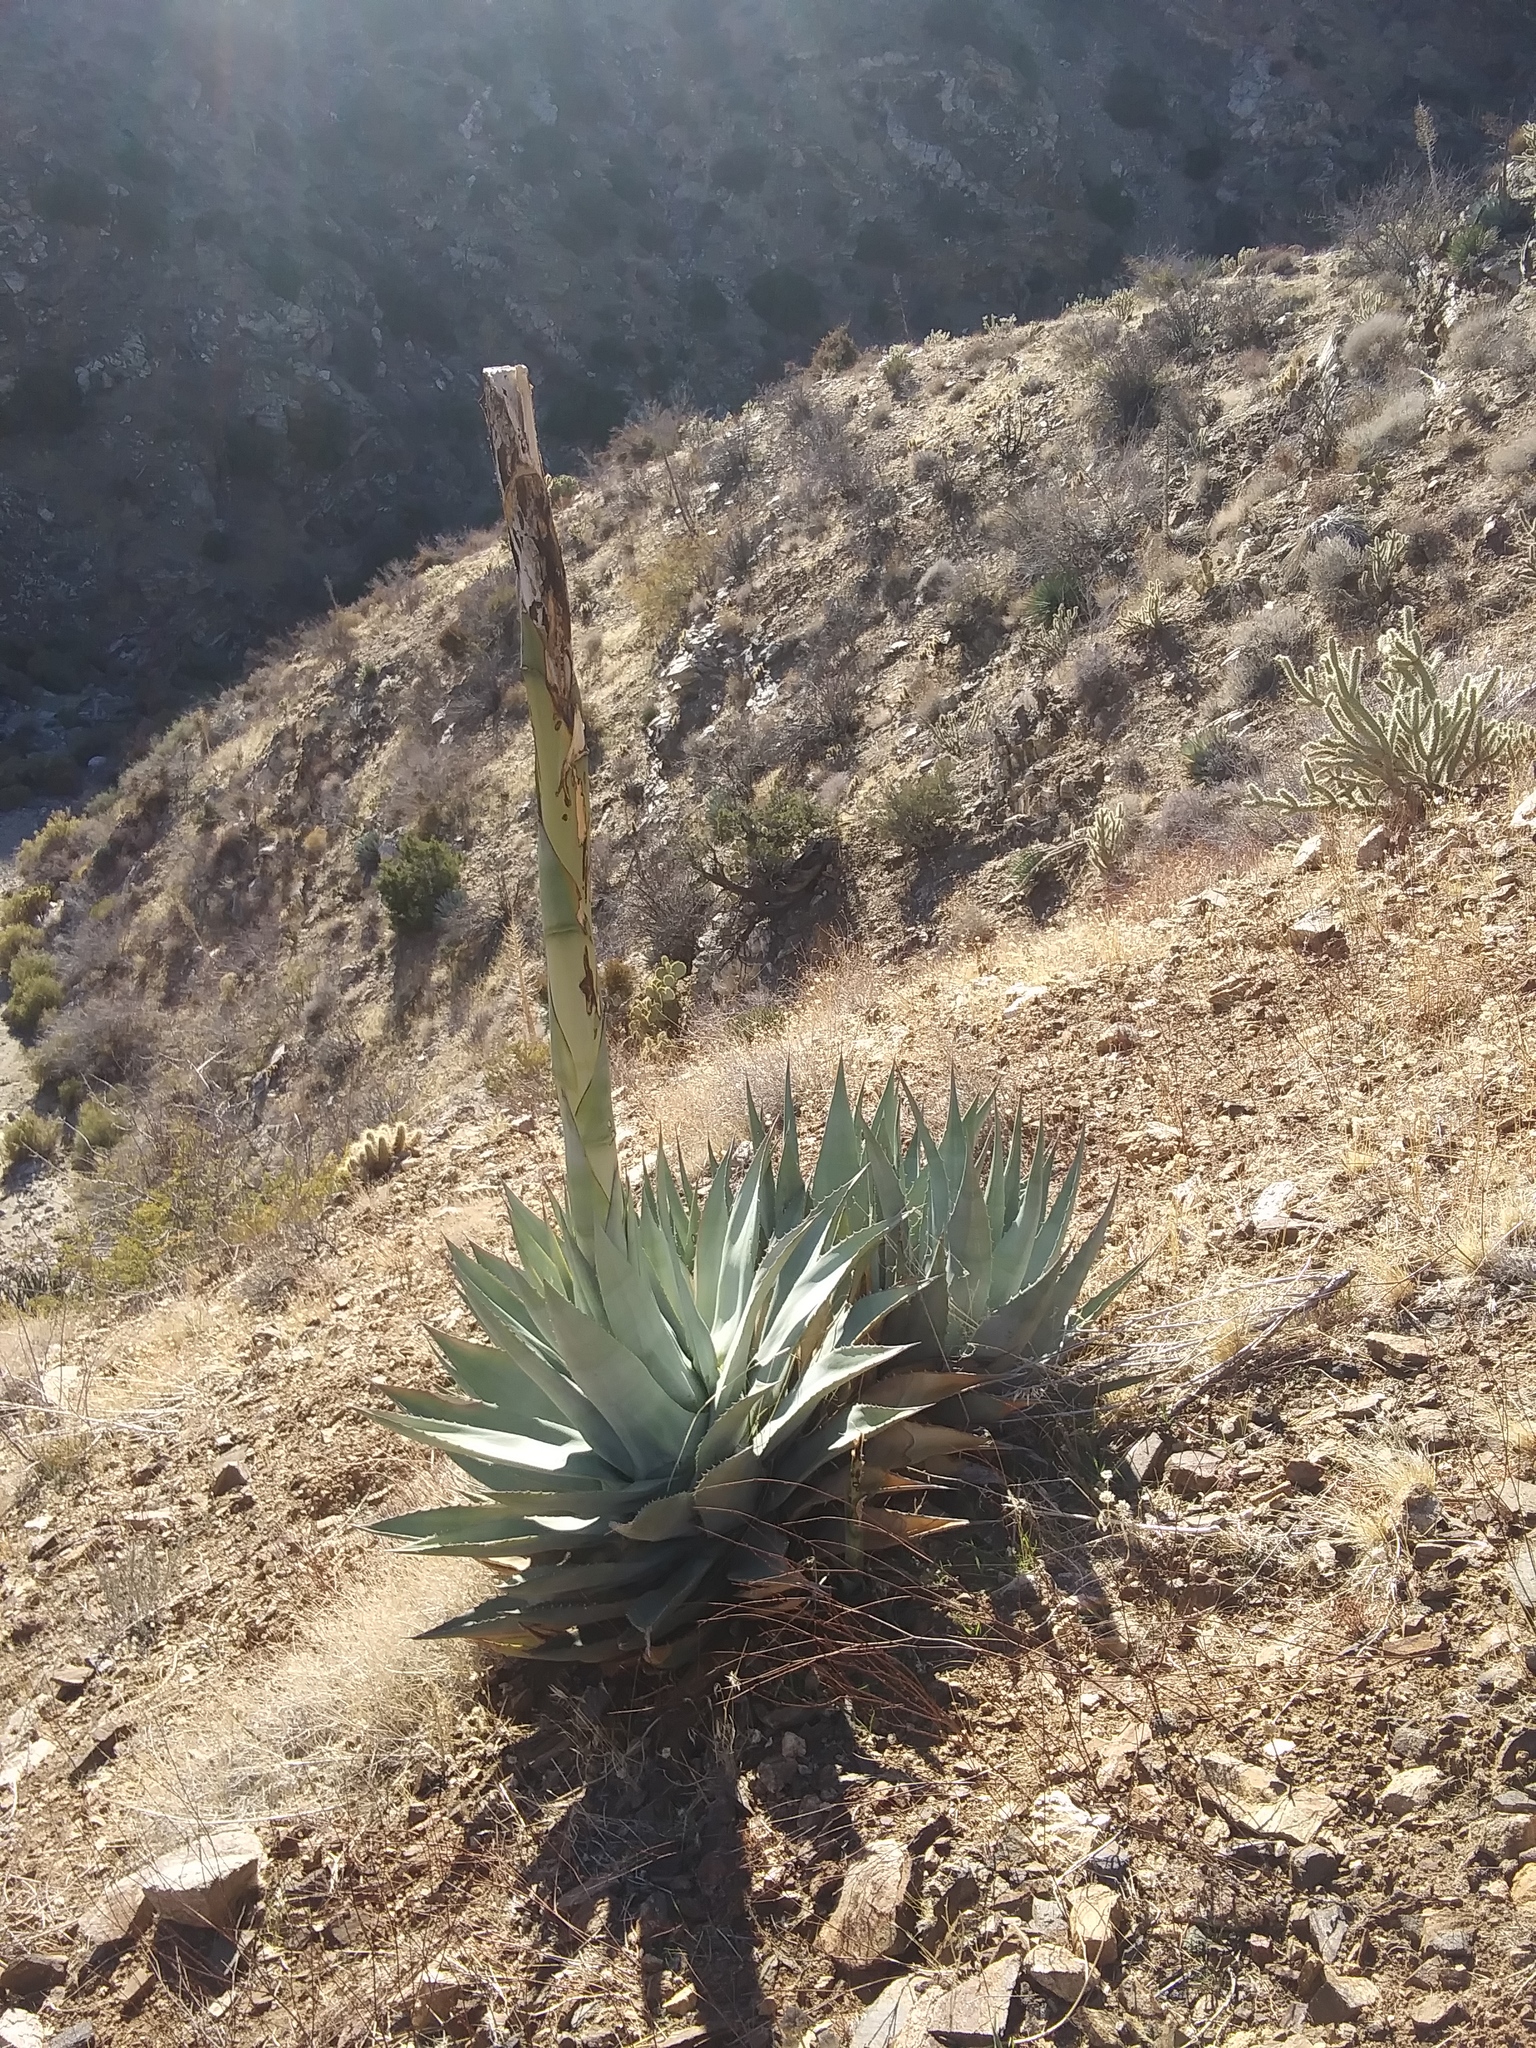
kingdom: Plantae
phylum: Tracheophyta
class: Liliopsida
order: Asparagales
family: Asparagaceae
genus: Agave
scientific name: Agave deserti
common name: Desert agave
